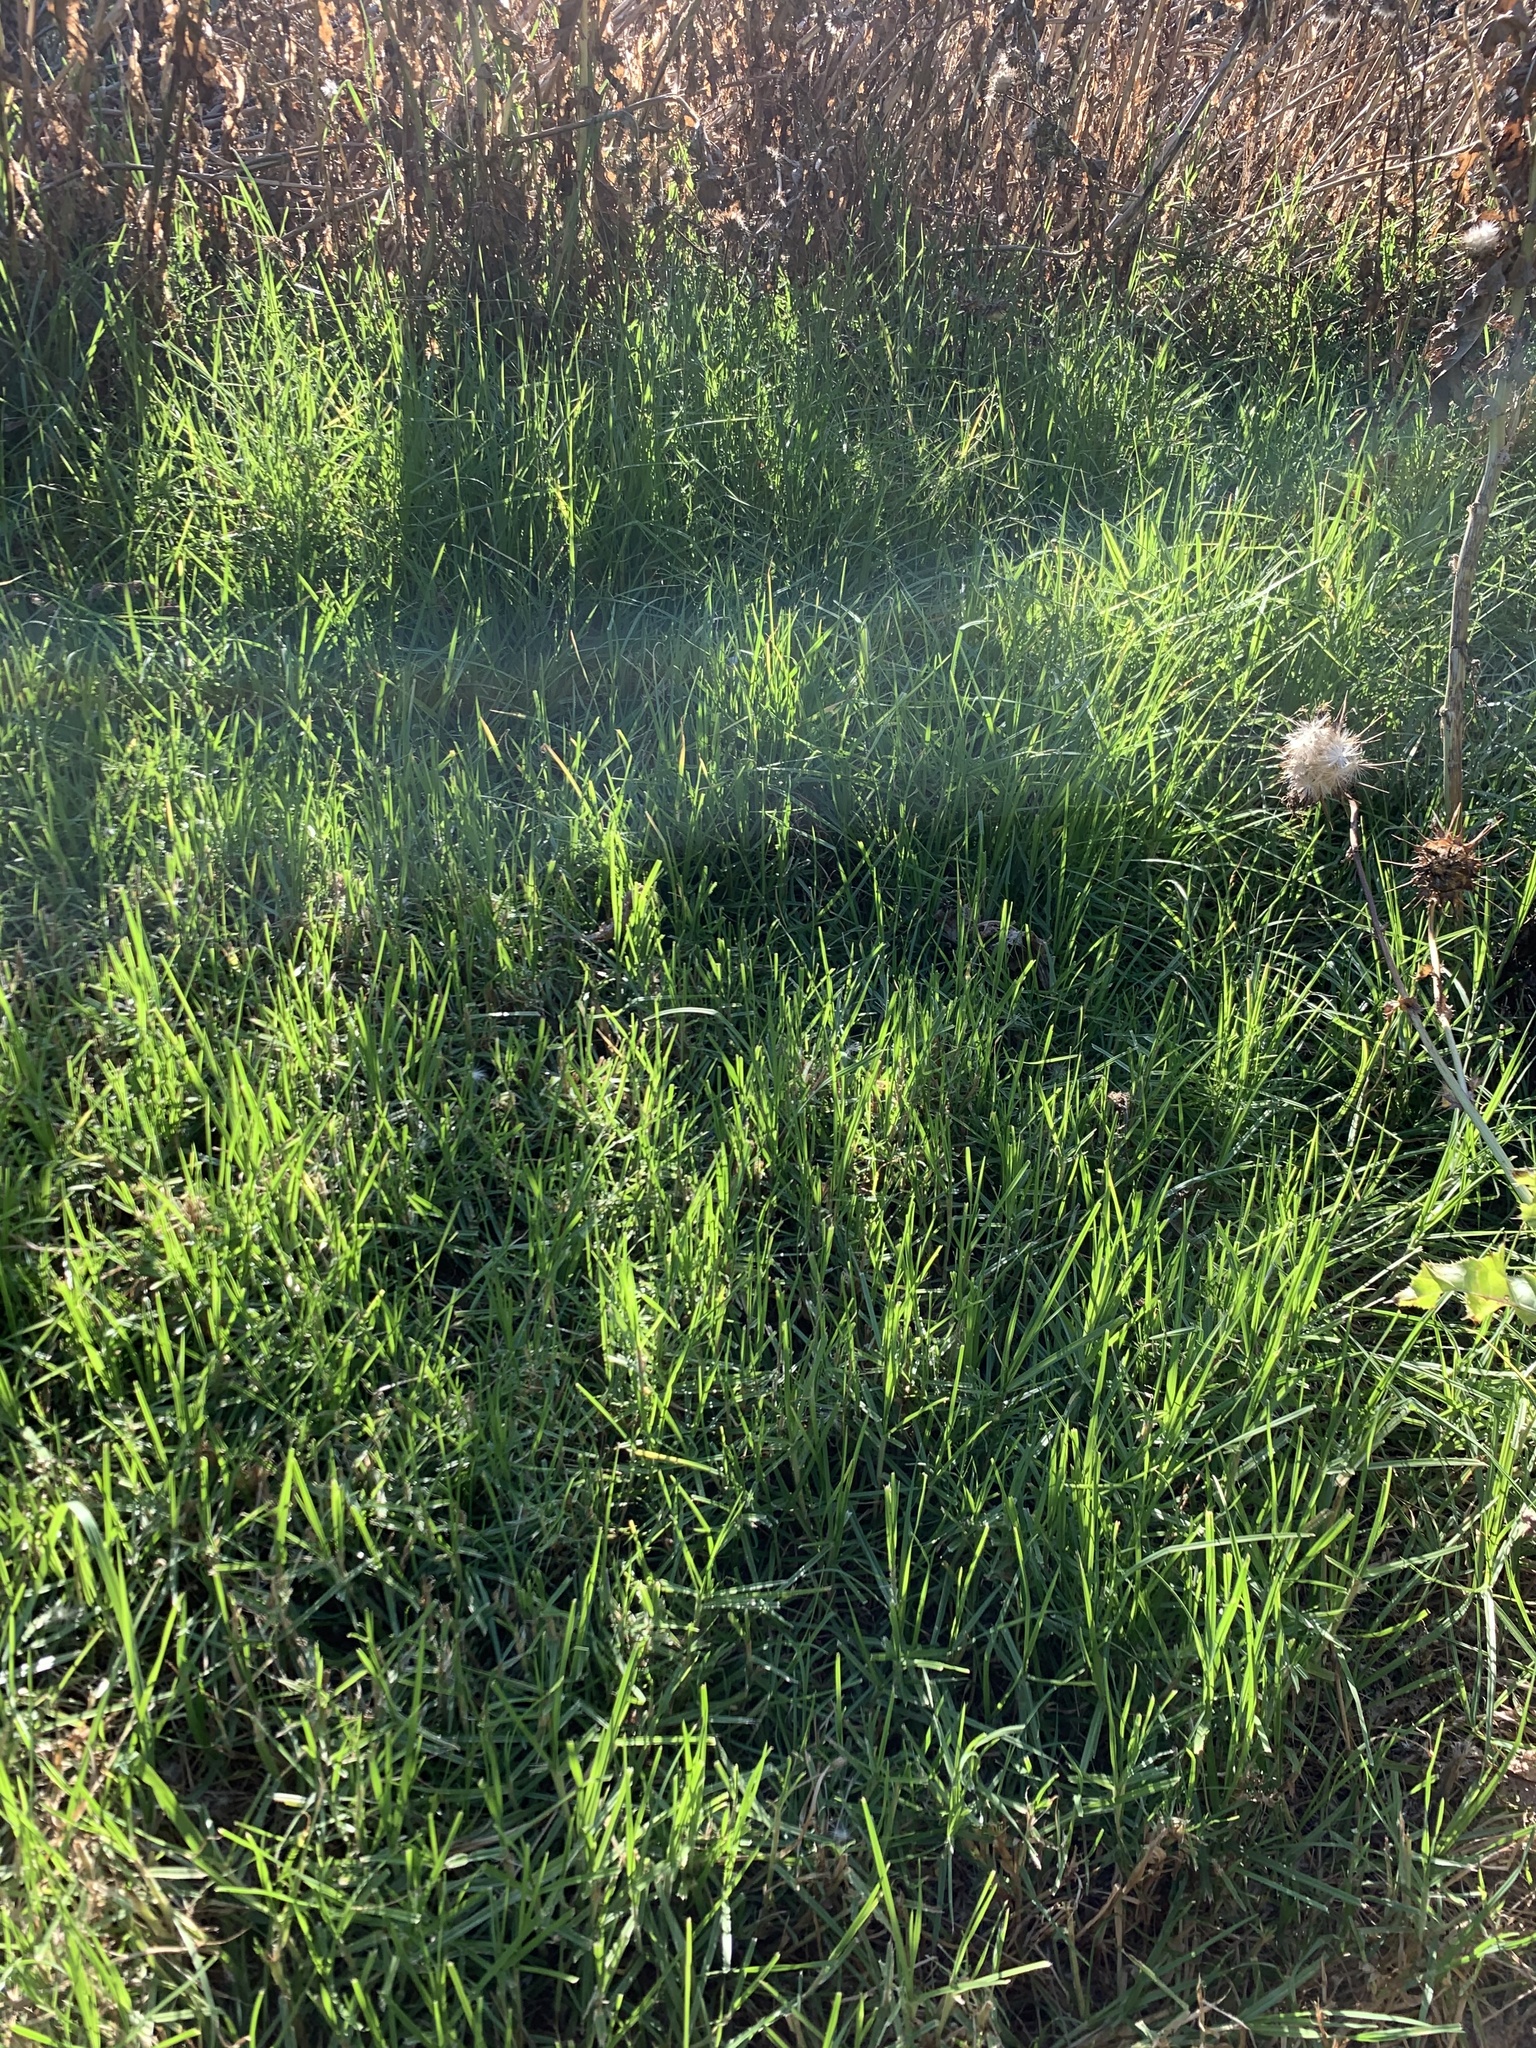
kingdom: Plantae
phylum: Tracheophyta
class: Liliopsida
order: Poales
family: Poaceae
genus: Cenchrus
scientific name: Cenchrus clandestinus
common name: Kikuyugrass
